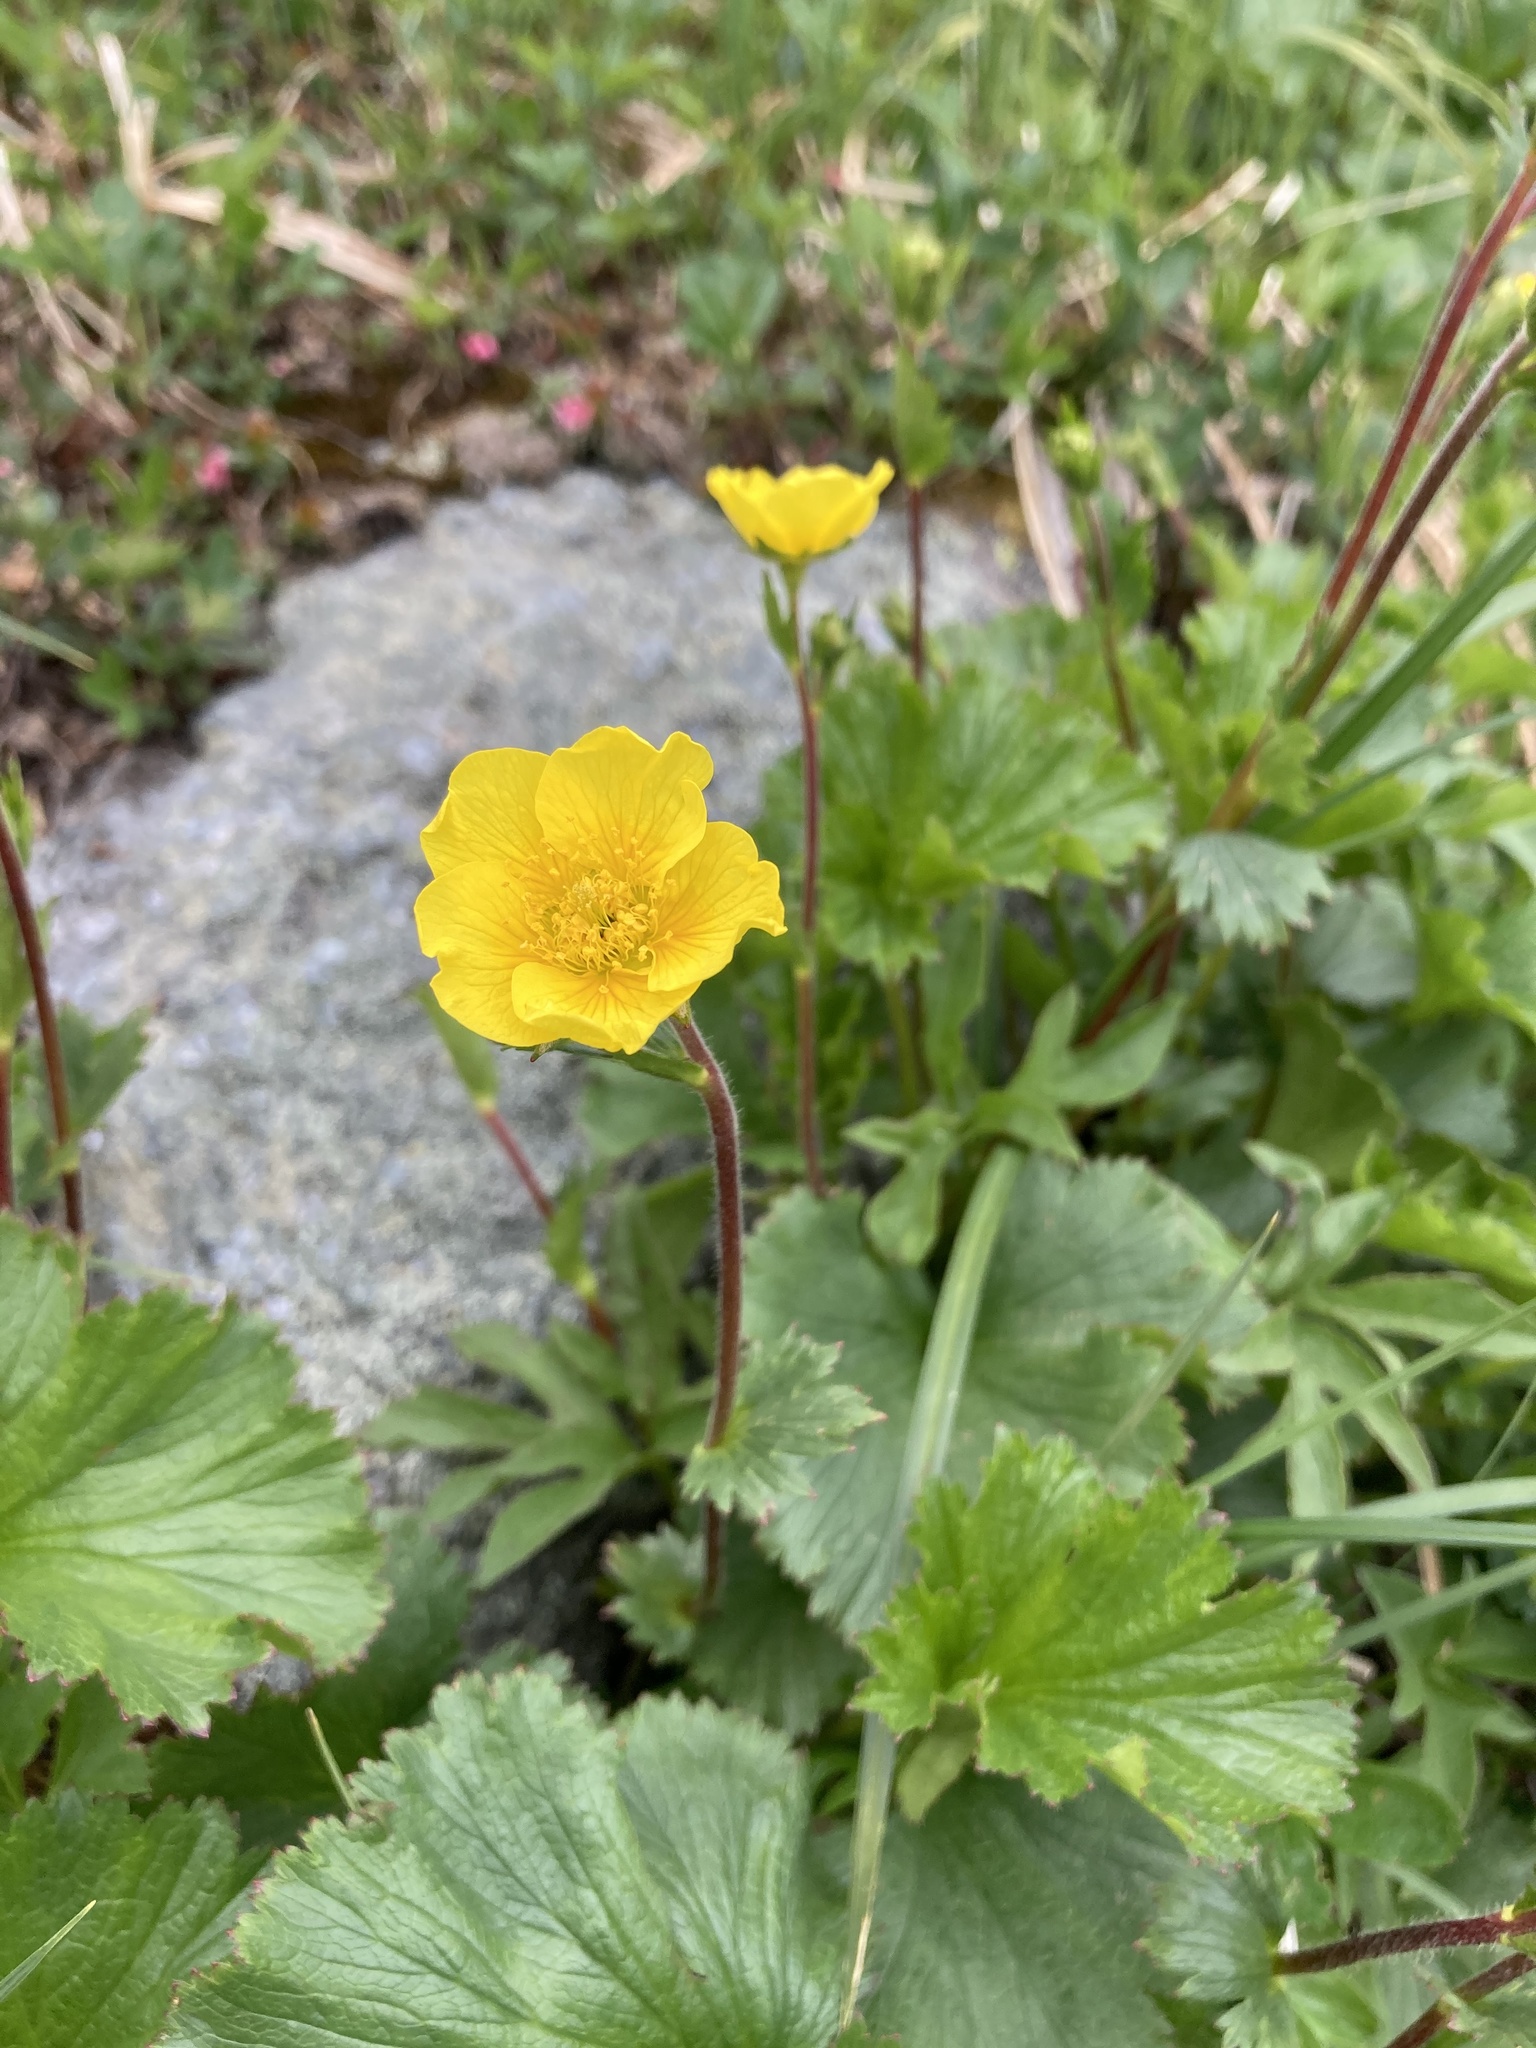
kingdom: Plantae
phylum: Tracheophyta
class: Magnoliopsida
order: Rosales
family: Rosaceae
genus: Geum
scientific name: Geum peckii
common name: Eastern mountain avens
